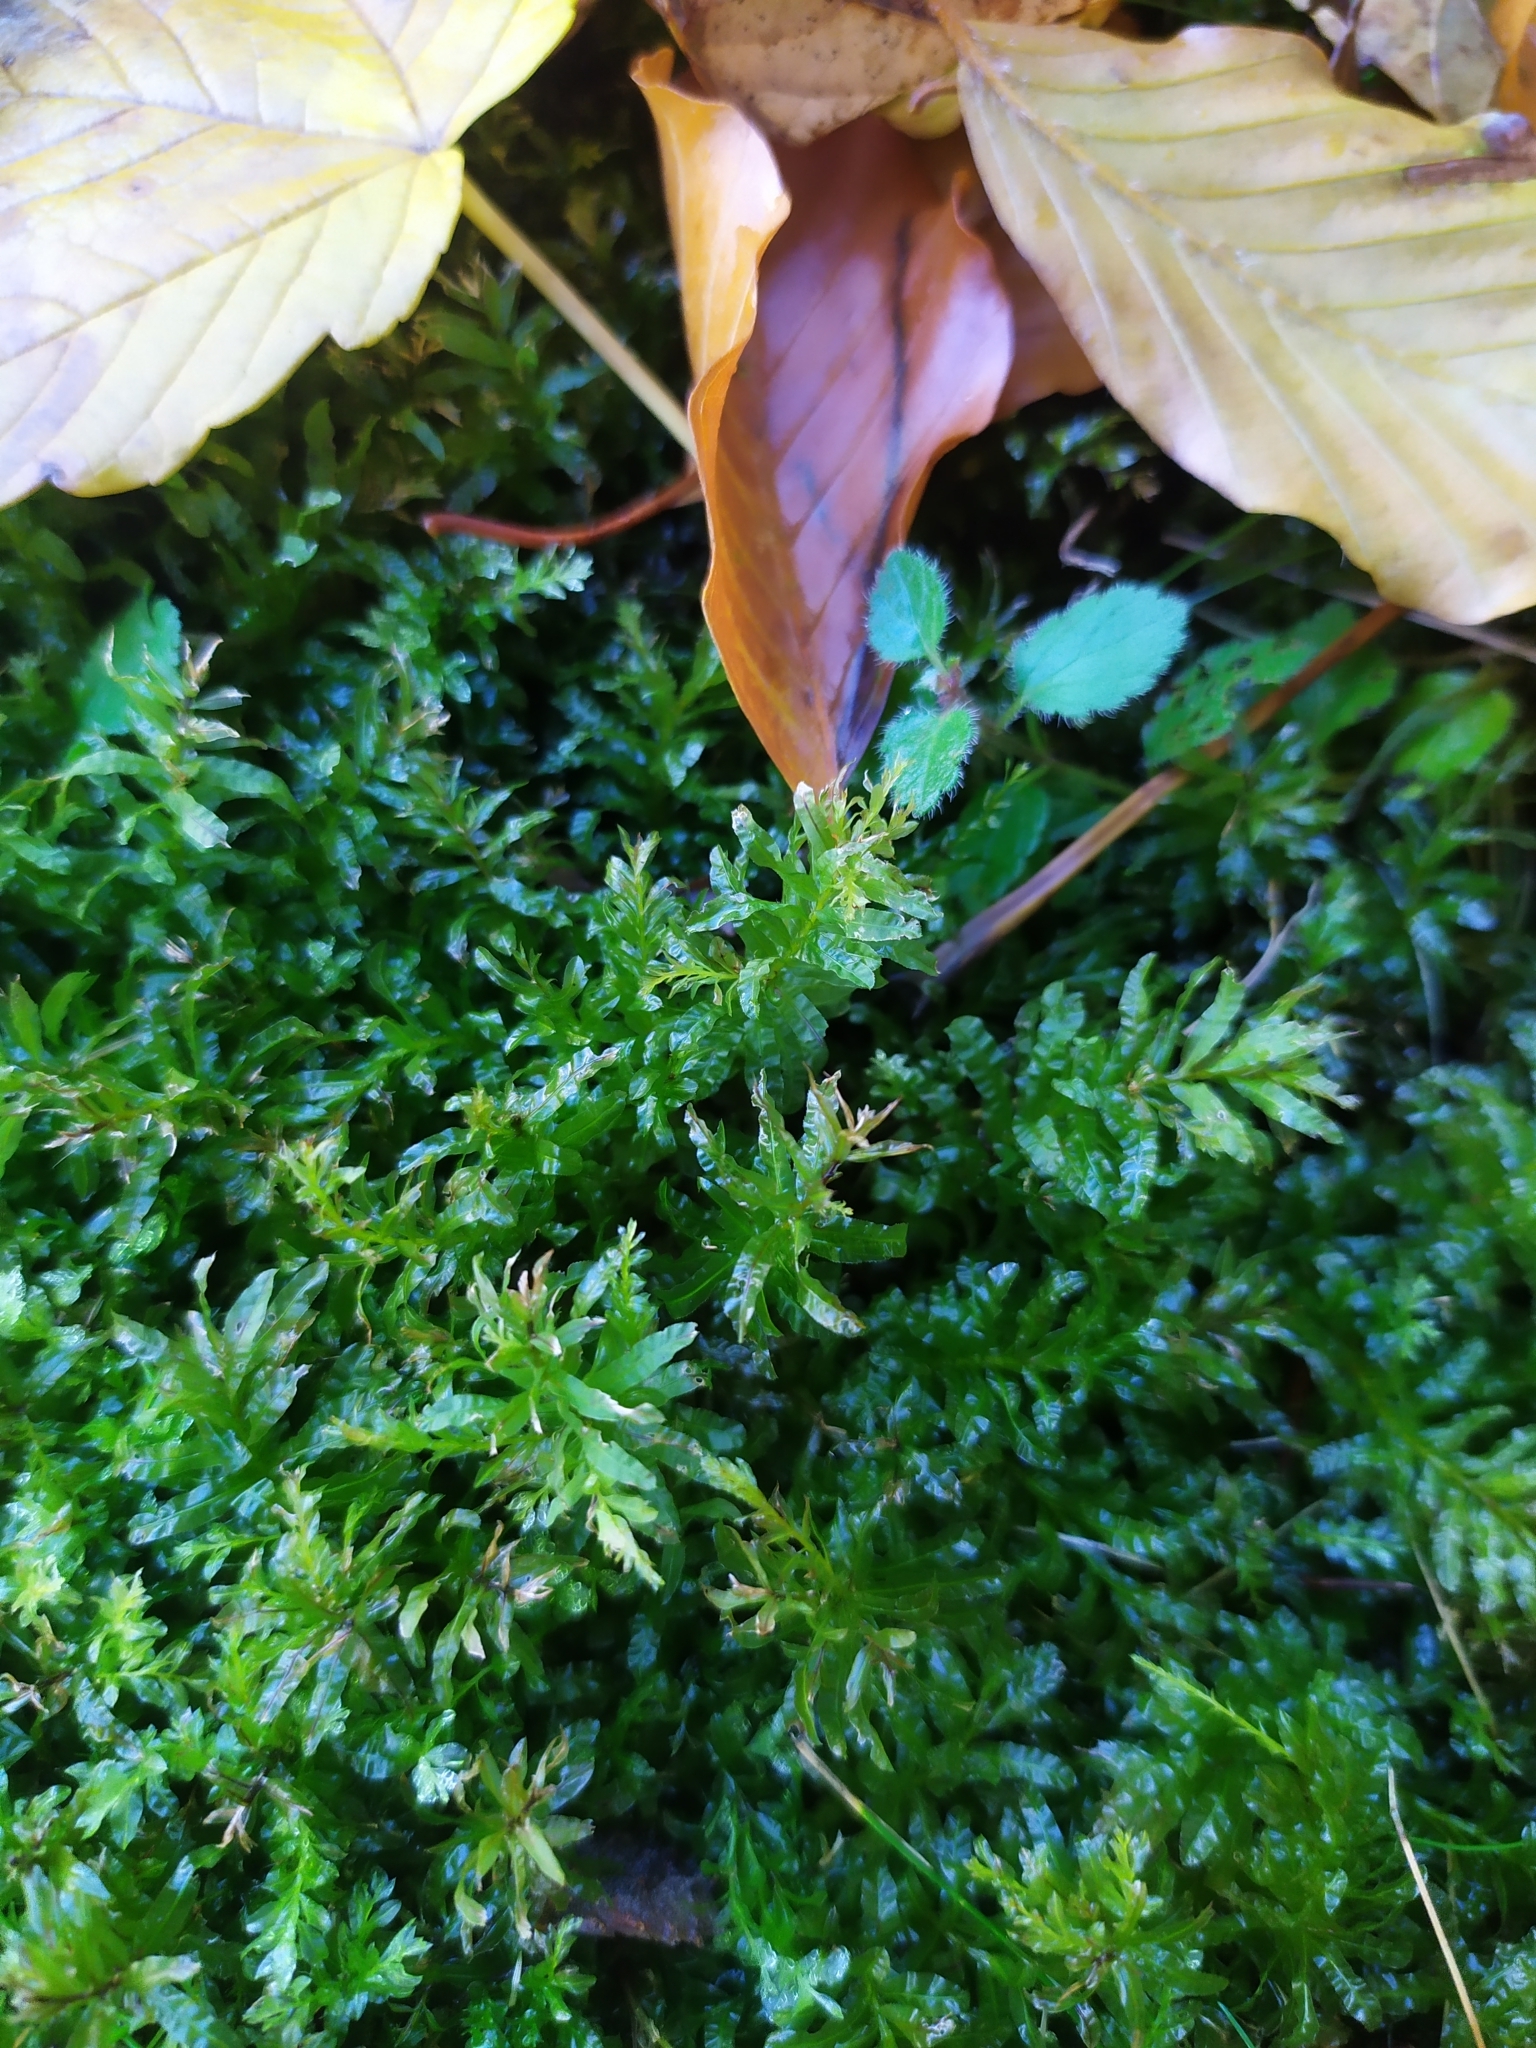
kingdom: Plantae
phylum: Bryophyta
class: Bryopsida
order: Bryales
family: Mniaceae
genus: Plagiomnium
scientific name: Plagiomnium undulatum
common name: Hart's-tongue thyme-moss
